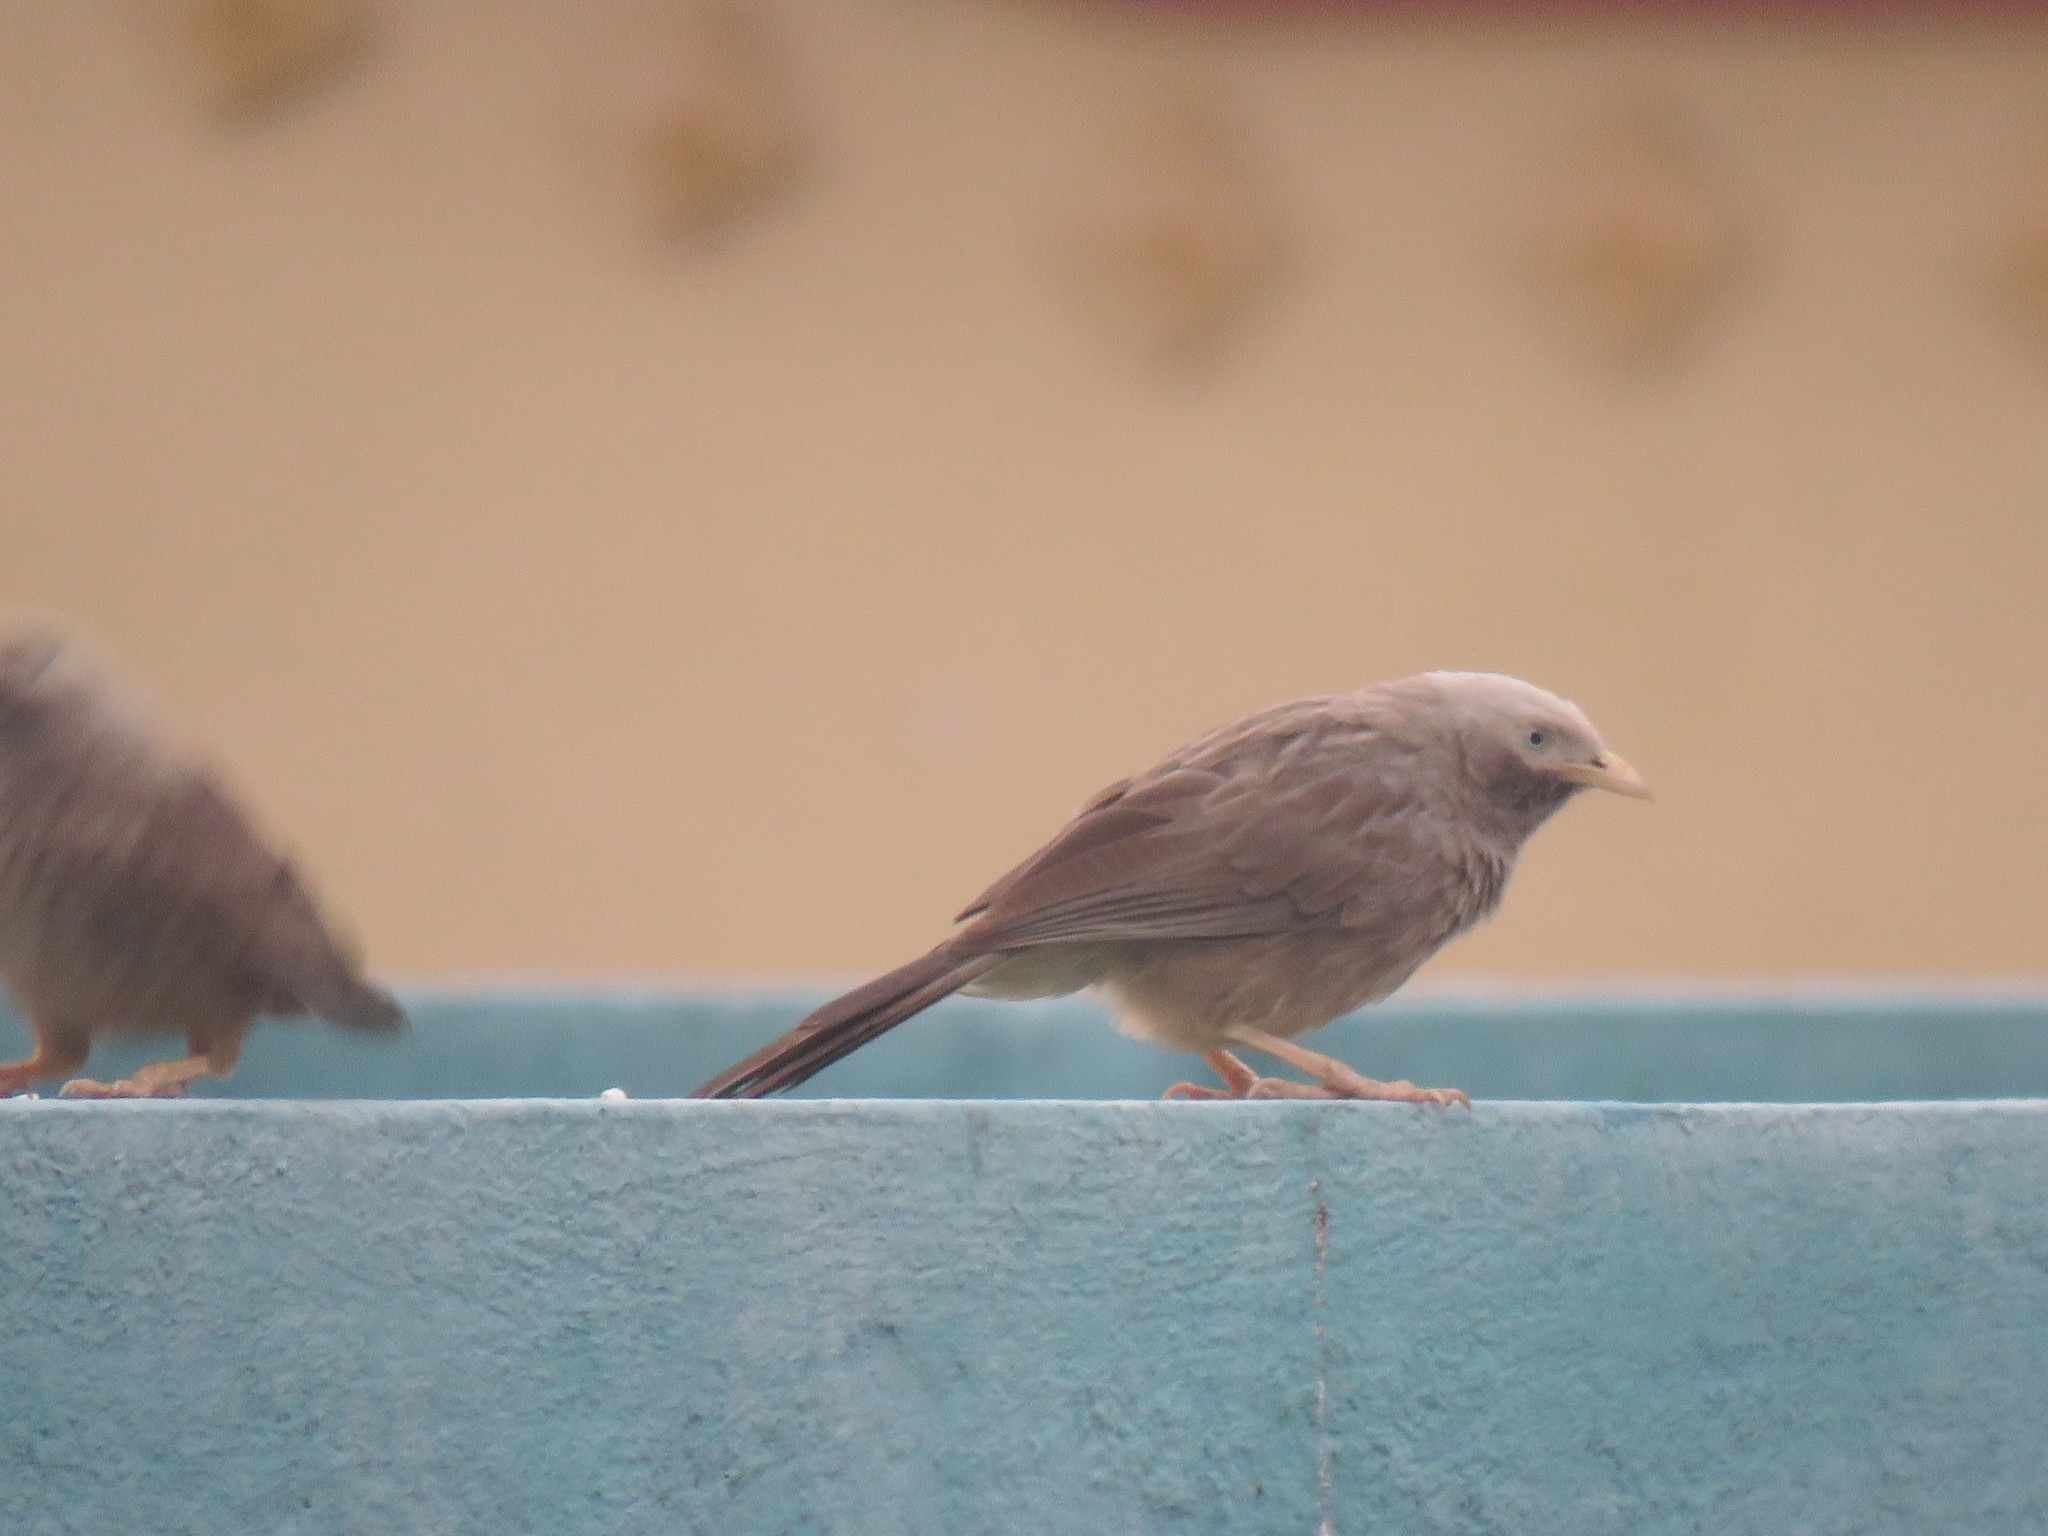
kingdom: Animalia
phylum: Chordata
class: Aves
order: Passeriformes
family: Leiothrichidae
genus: Turdoides
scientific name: Turdoides affinis
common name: Yellow-billed babbler
